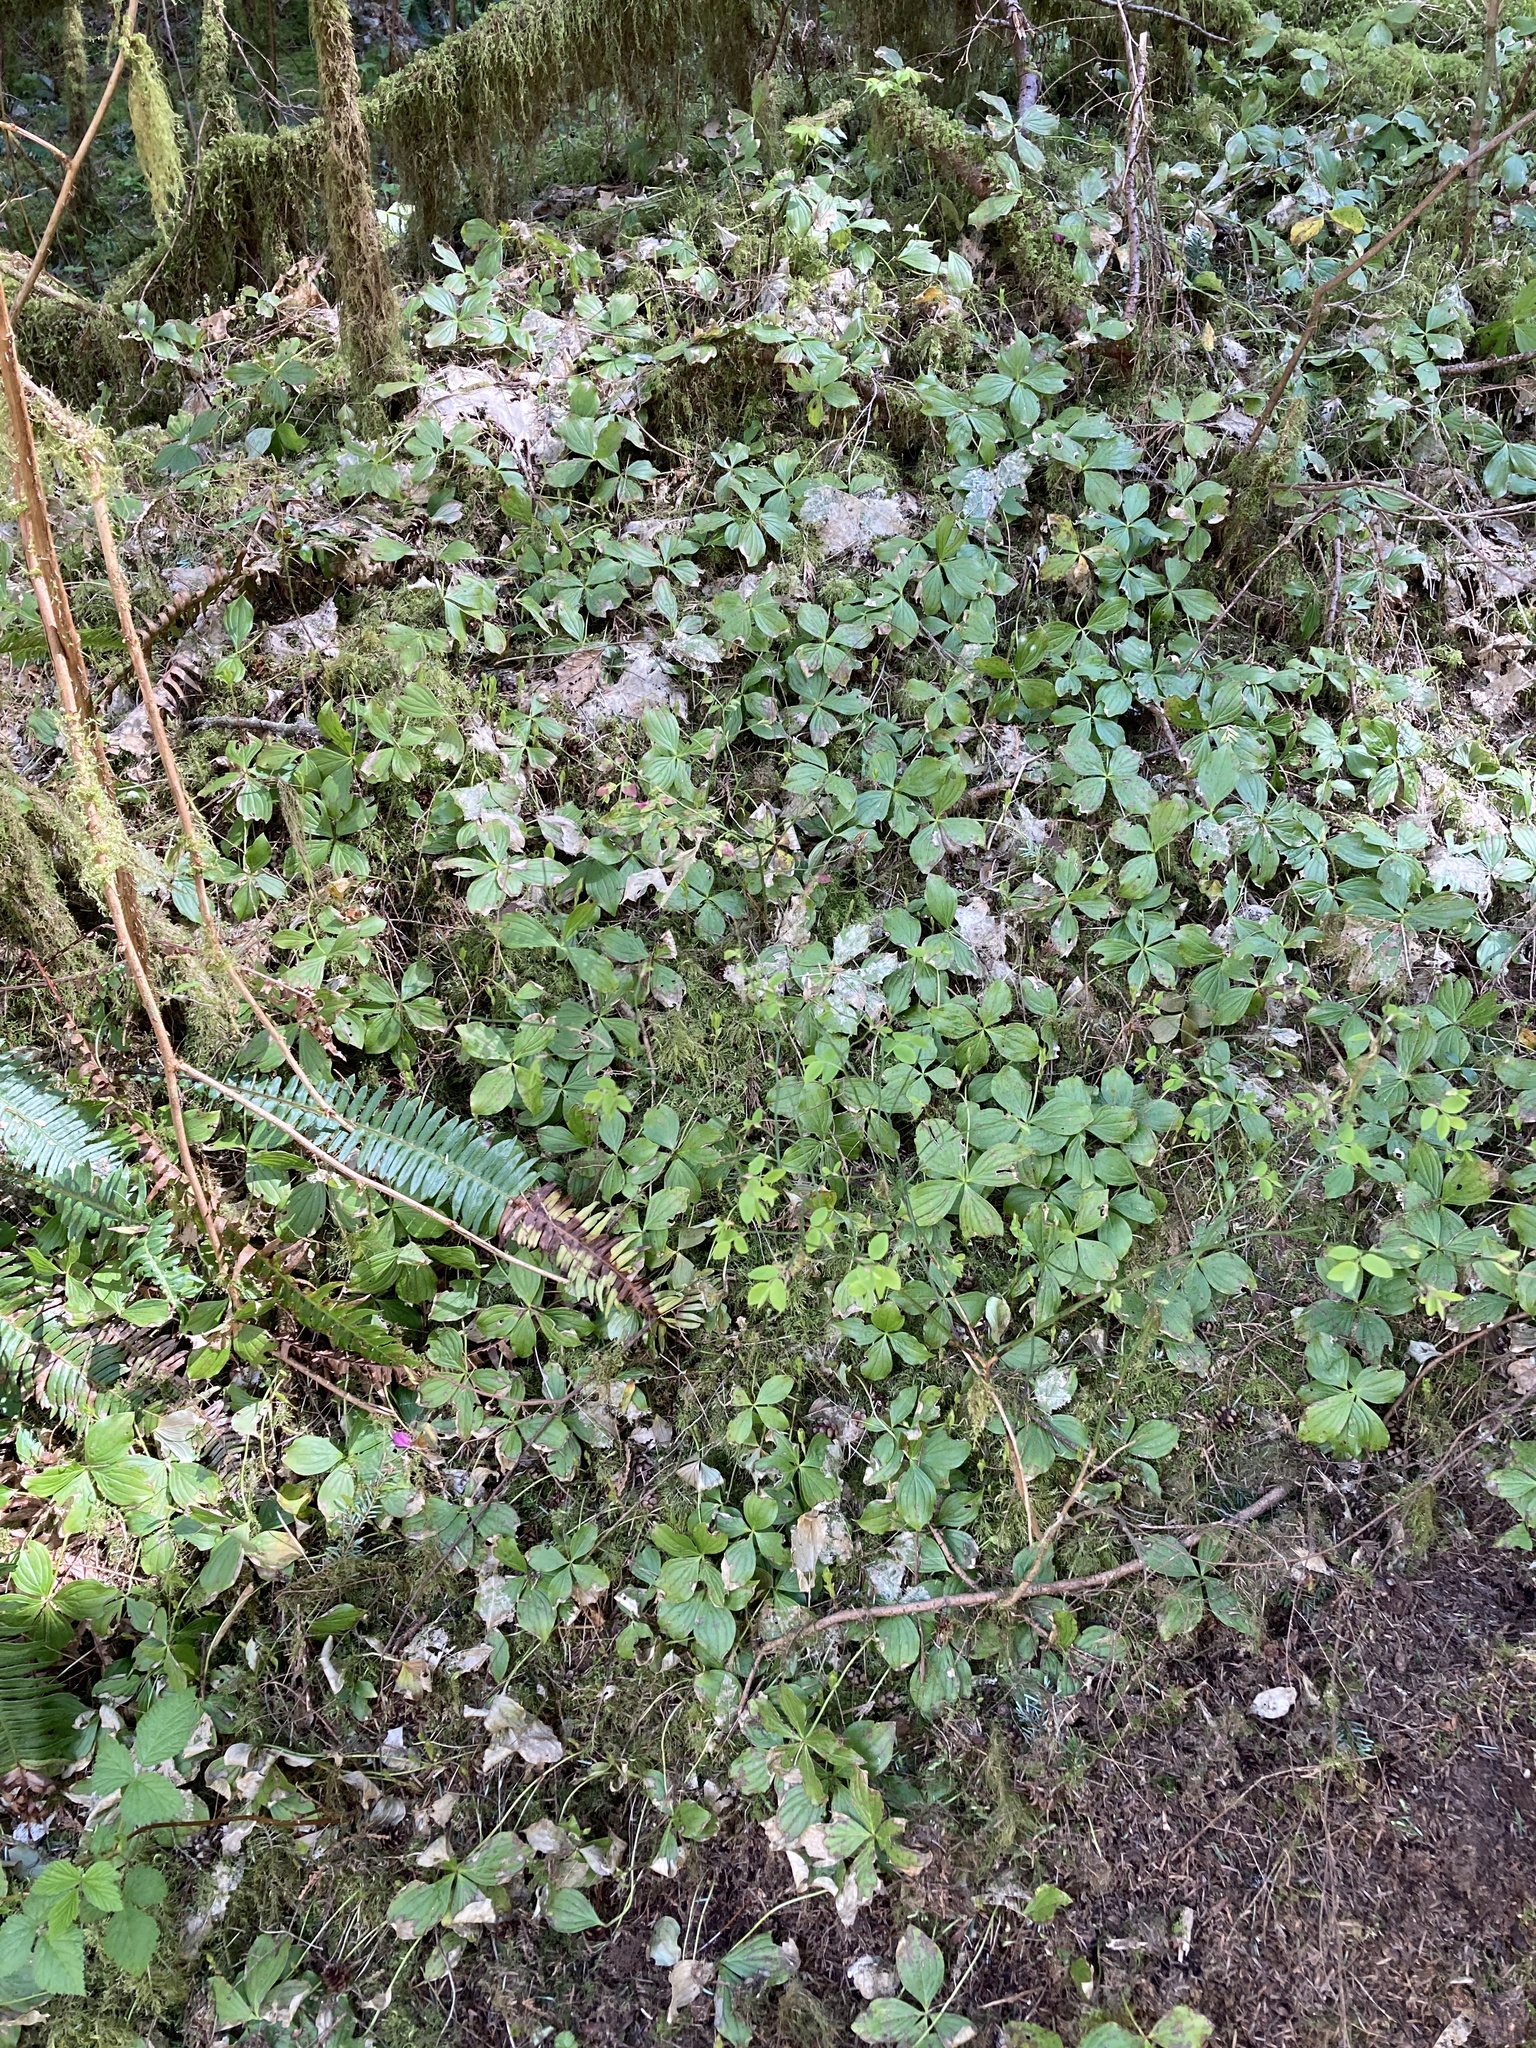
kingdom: Plantae
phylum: Tracheophyta
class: Magnoliopsida
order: Cornales
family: Cornaceae
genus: Cornus
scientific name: Cornus unalaschkensis
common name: Alaska bunchberry
